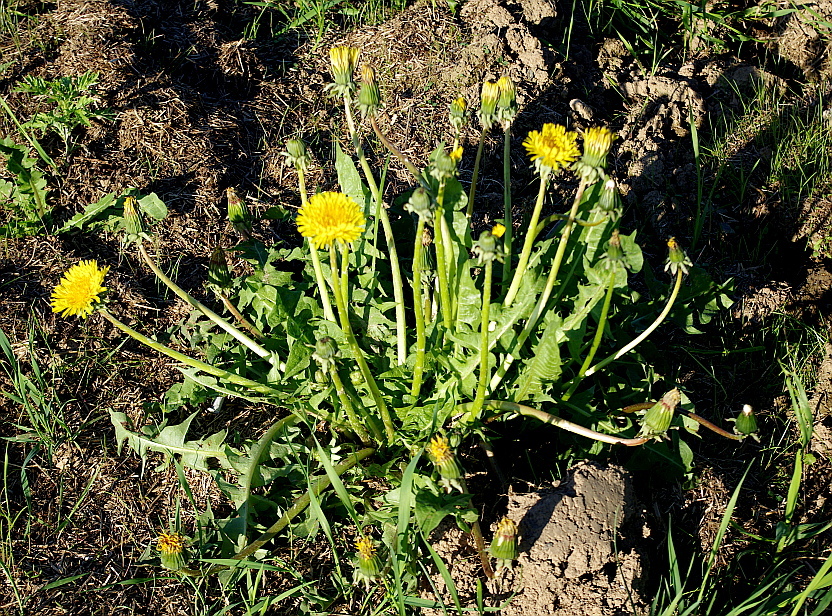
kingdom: Plantae
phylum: Tracheophyta
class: Magnoliopsida
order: Asterales
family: Asteraceae
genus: Taraxacum
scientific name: Taraxacum officinale
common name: Common dandelion
